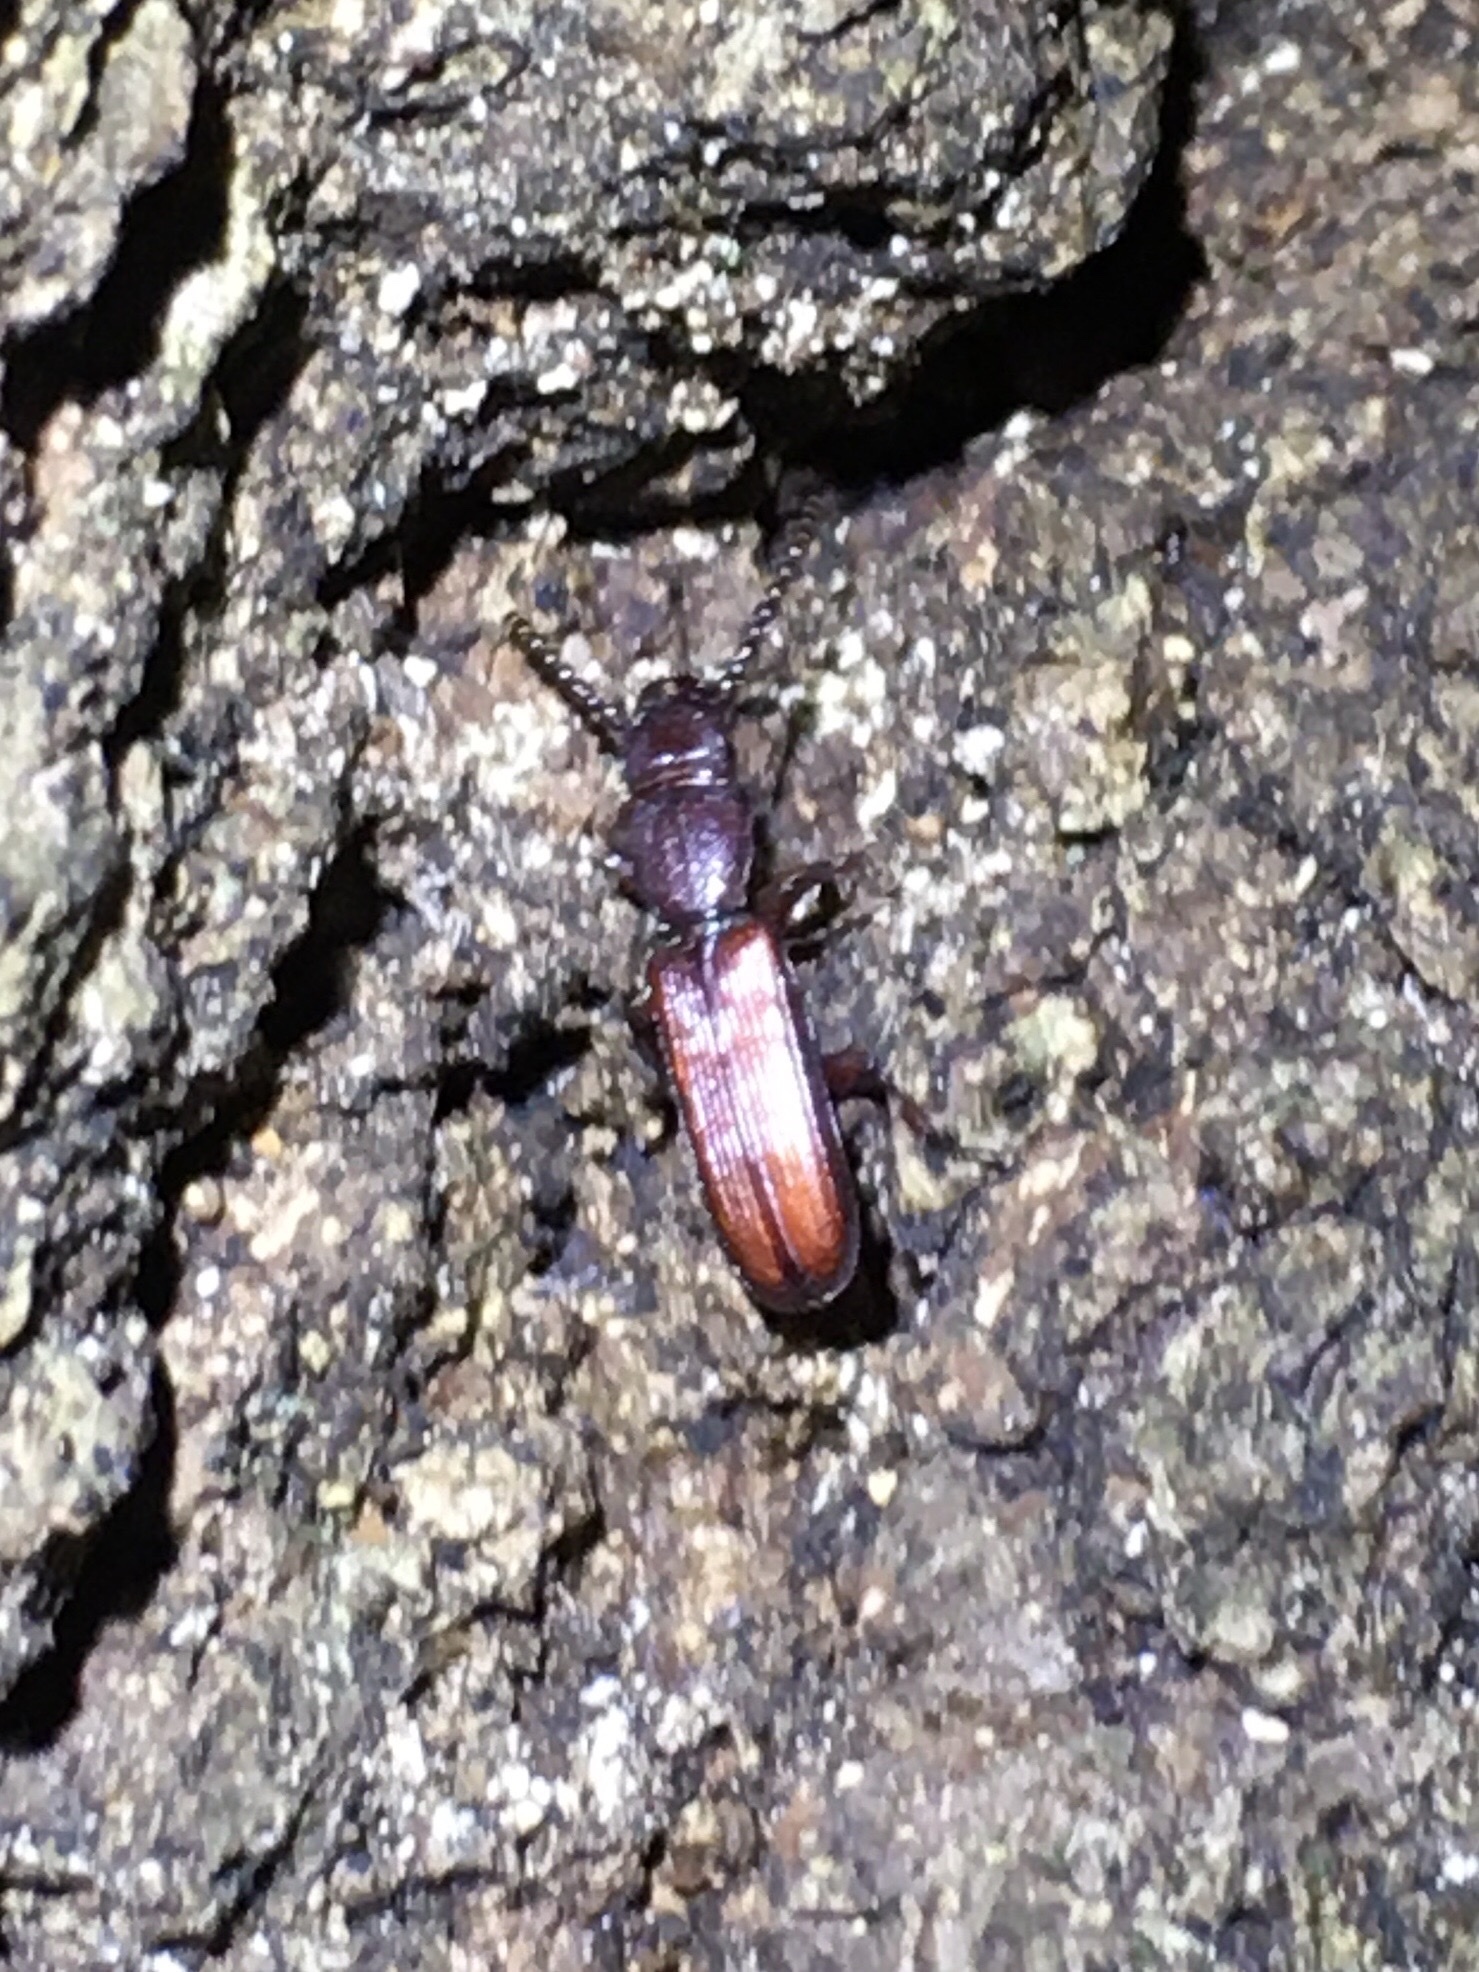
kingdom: Animalia
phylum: Arthropoda
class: Insecta
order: Coleoptera
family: Passandridae
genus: Catogenus
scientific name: Catogenus rufus
